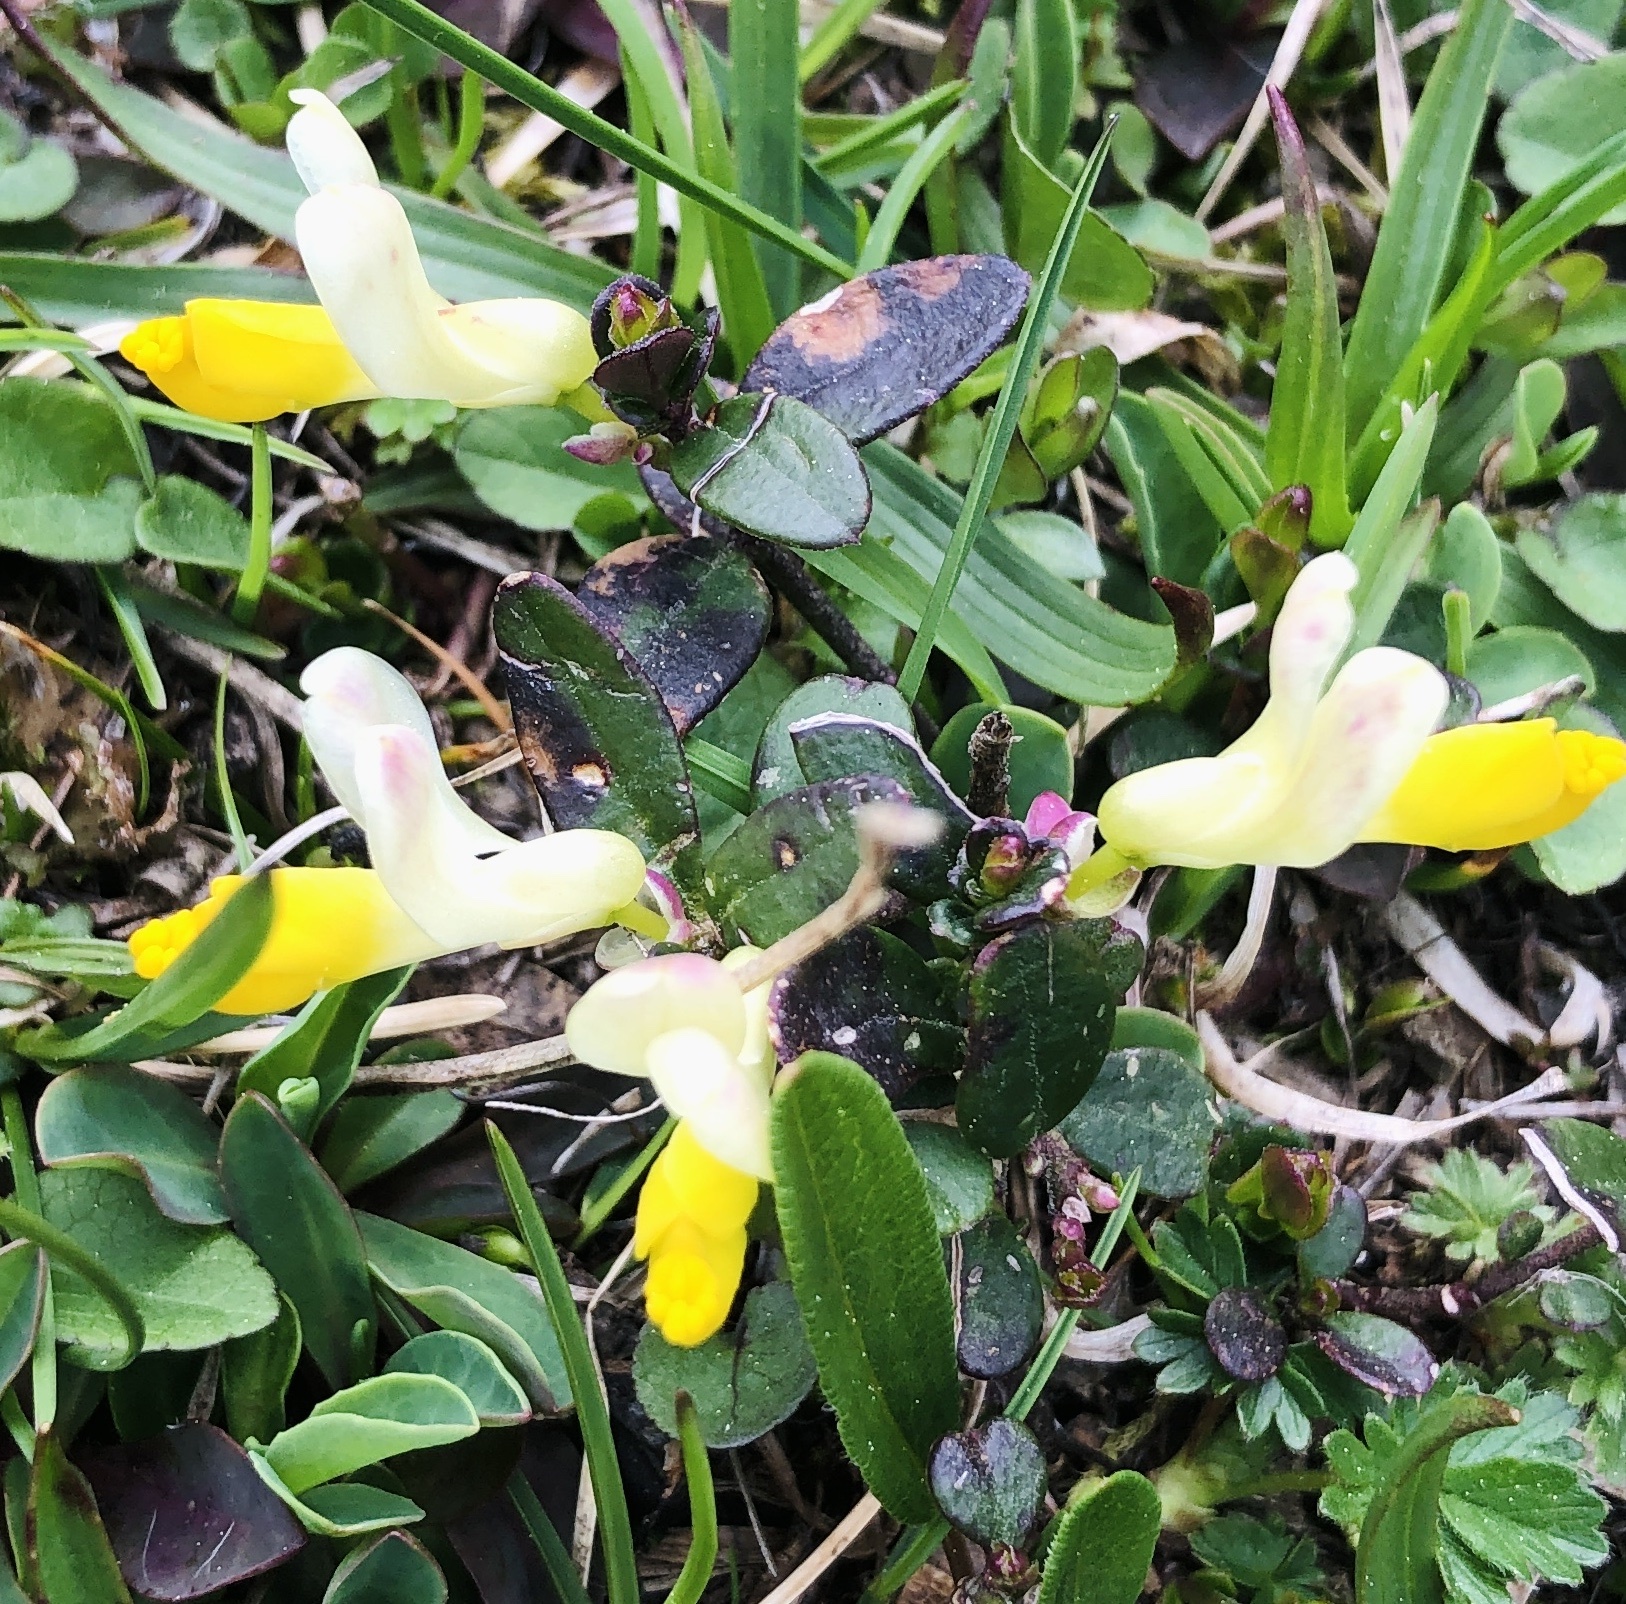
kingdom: Plantae
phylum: Tracheophyta
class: Magnoliopsida
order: Fabales
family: Polygalaceae
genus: Polygaloides
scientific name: Polygaloides chamaebuxus
